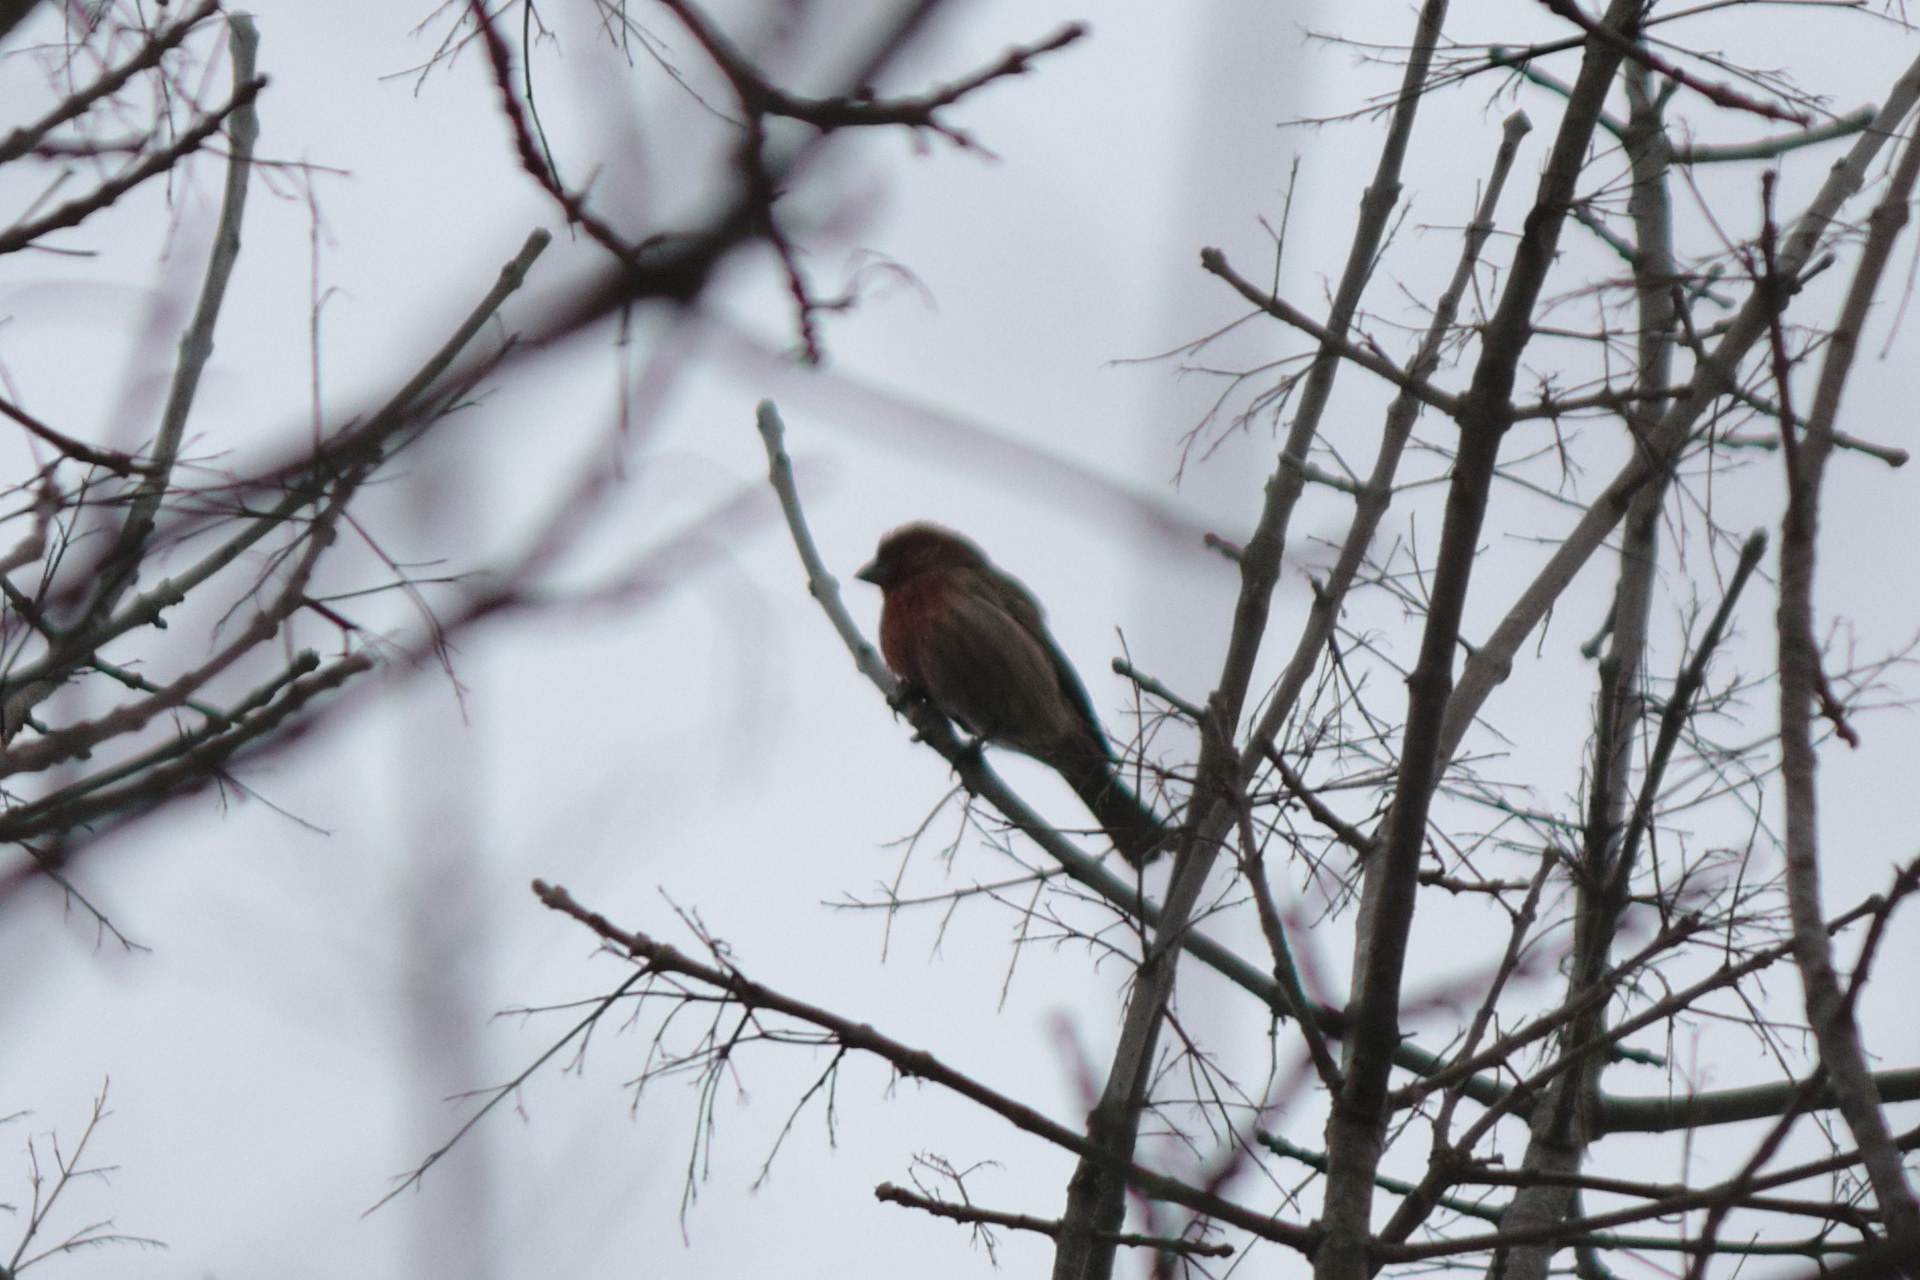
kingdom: Animalia
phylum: Chordata
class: Aves
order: Passeriformes
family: Fringillidae
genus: Haemorhous
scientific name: Haemorhous mexicanus
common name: House finch
